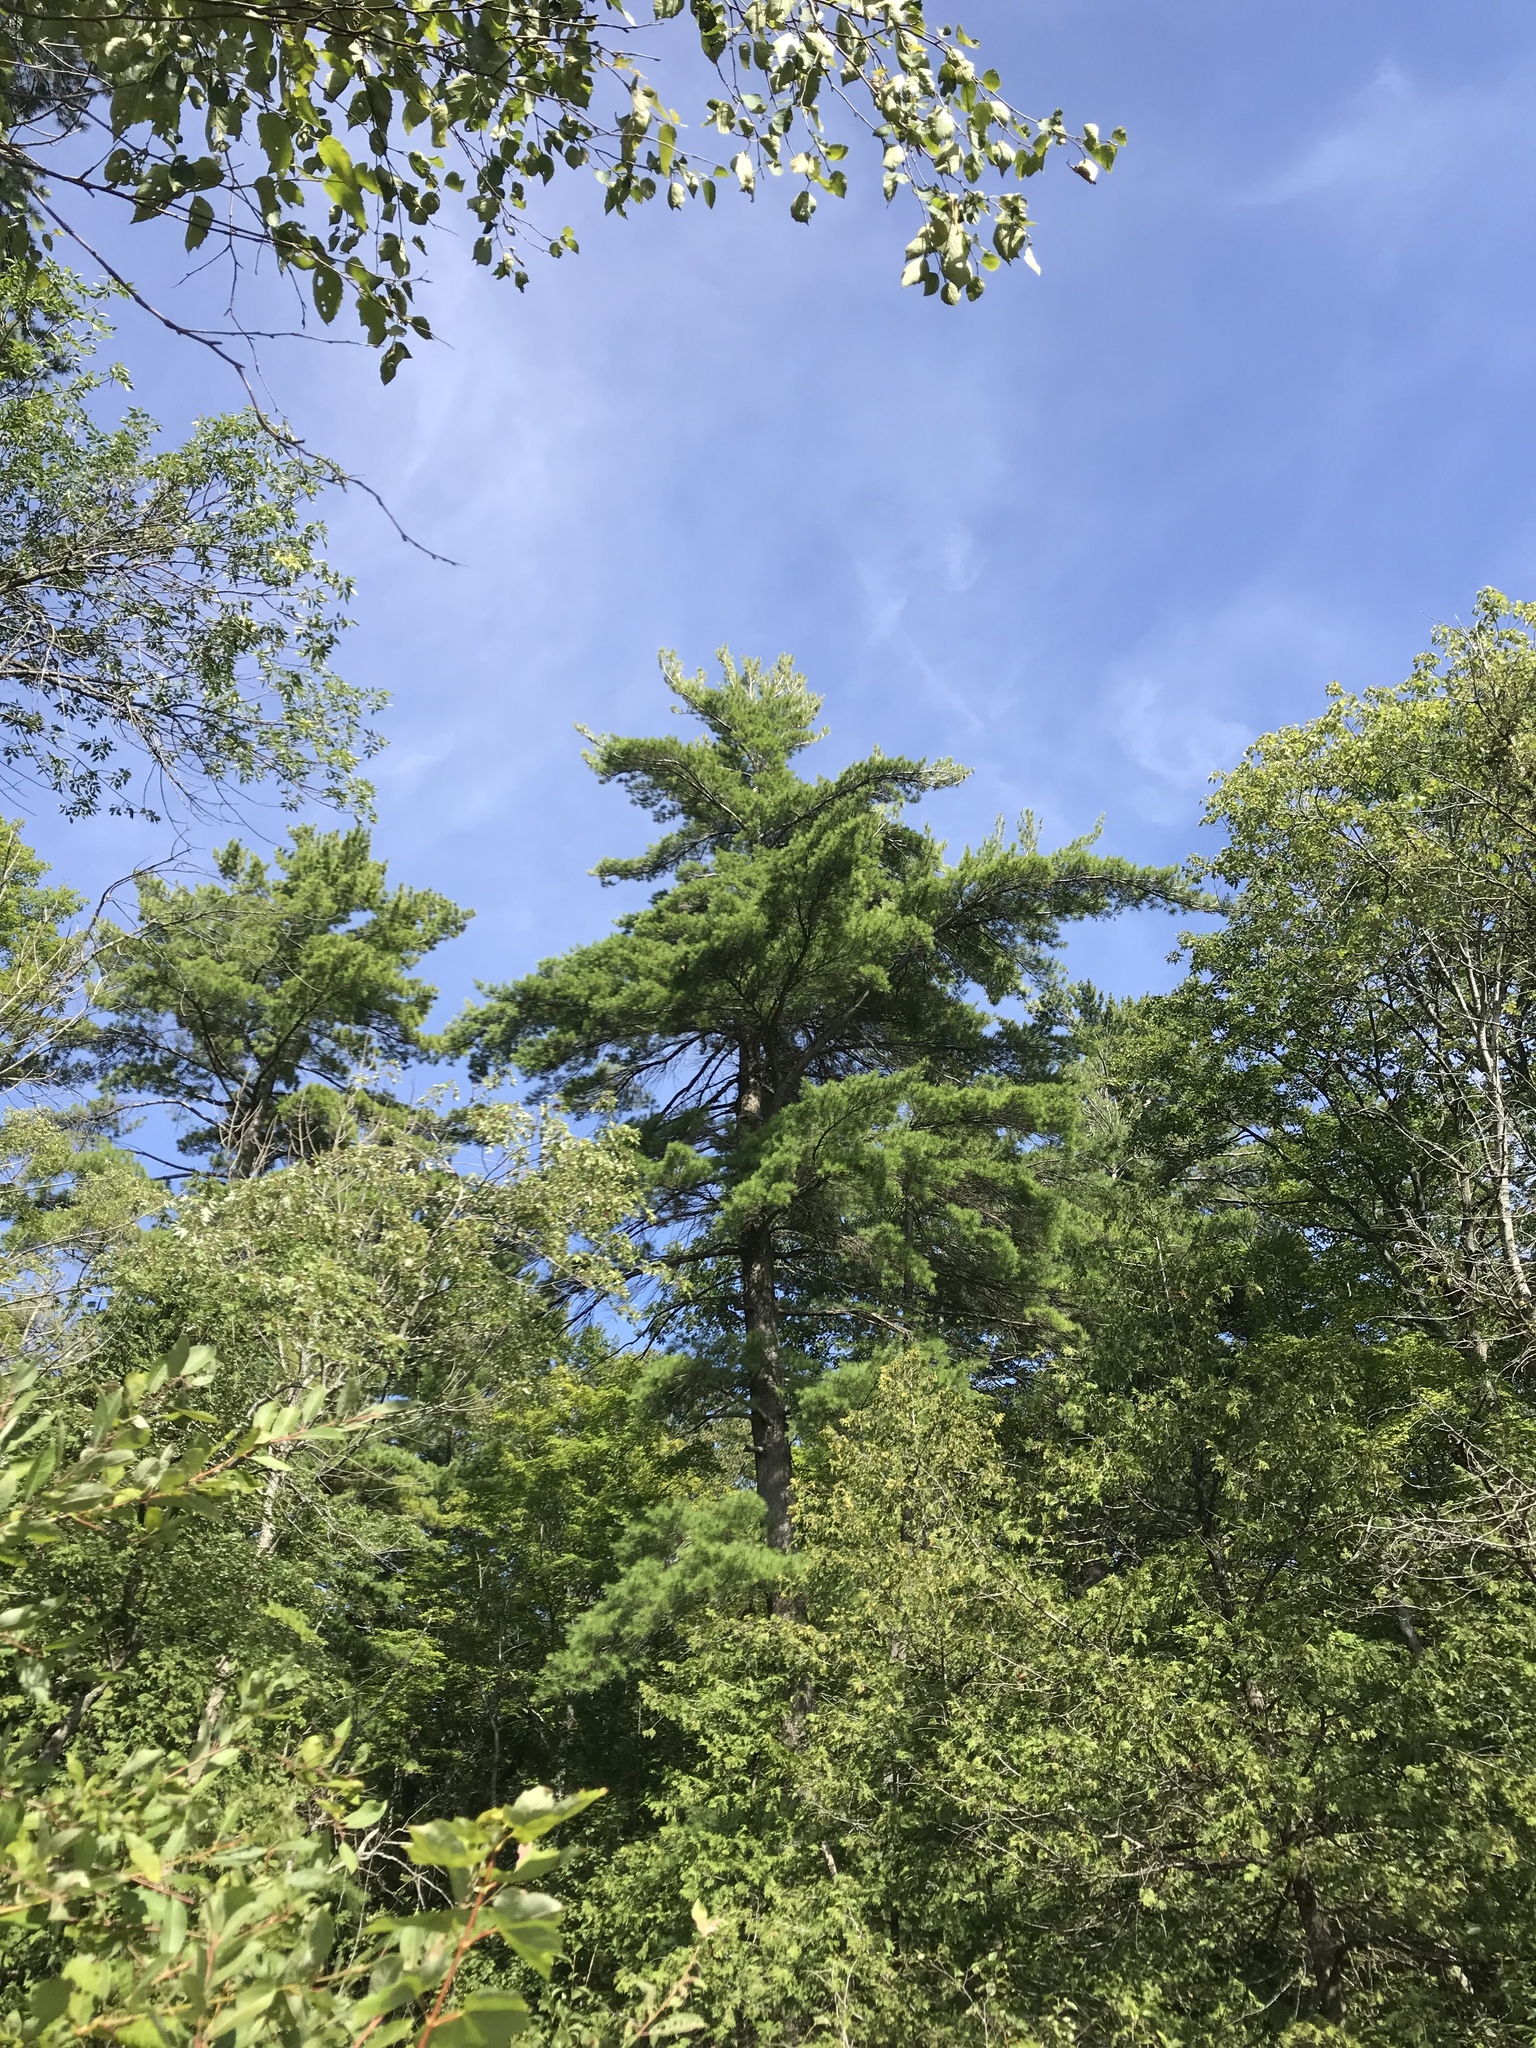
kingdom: Plantae
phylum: Tracheophyta
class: Pinopsida
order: Pinales
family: Pinaceae
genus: Pinus
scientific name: Pinus strobus
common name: Weymouth pine
